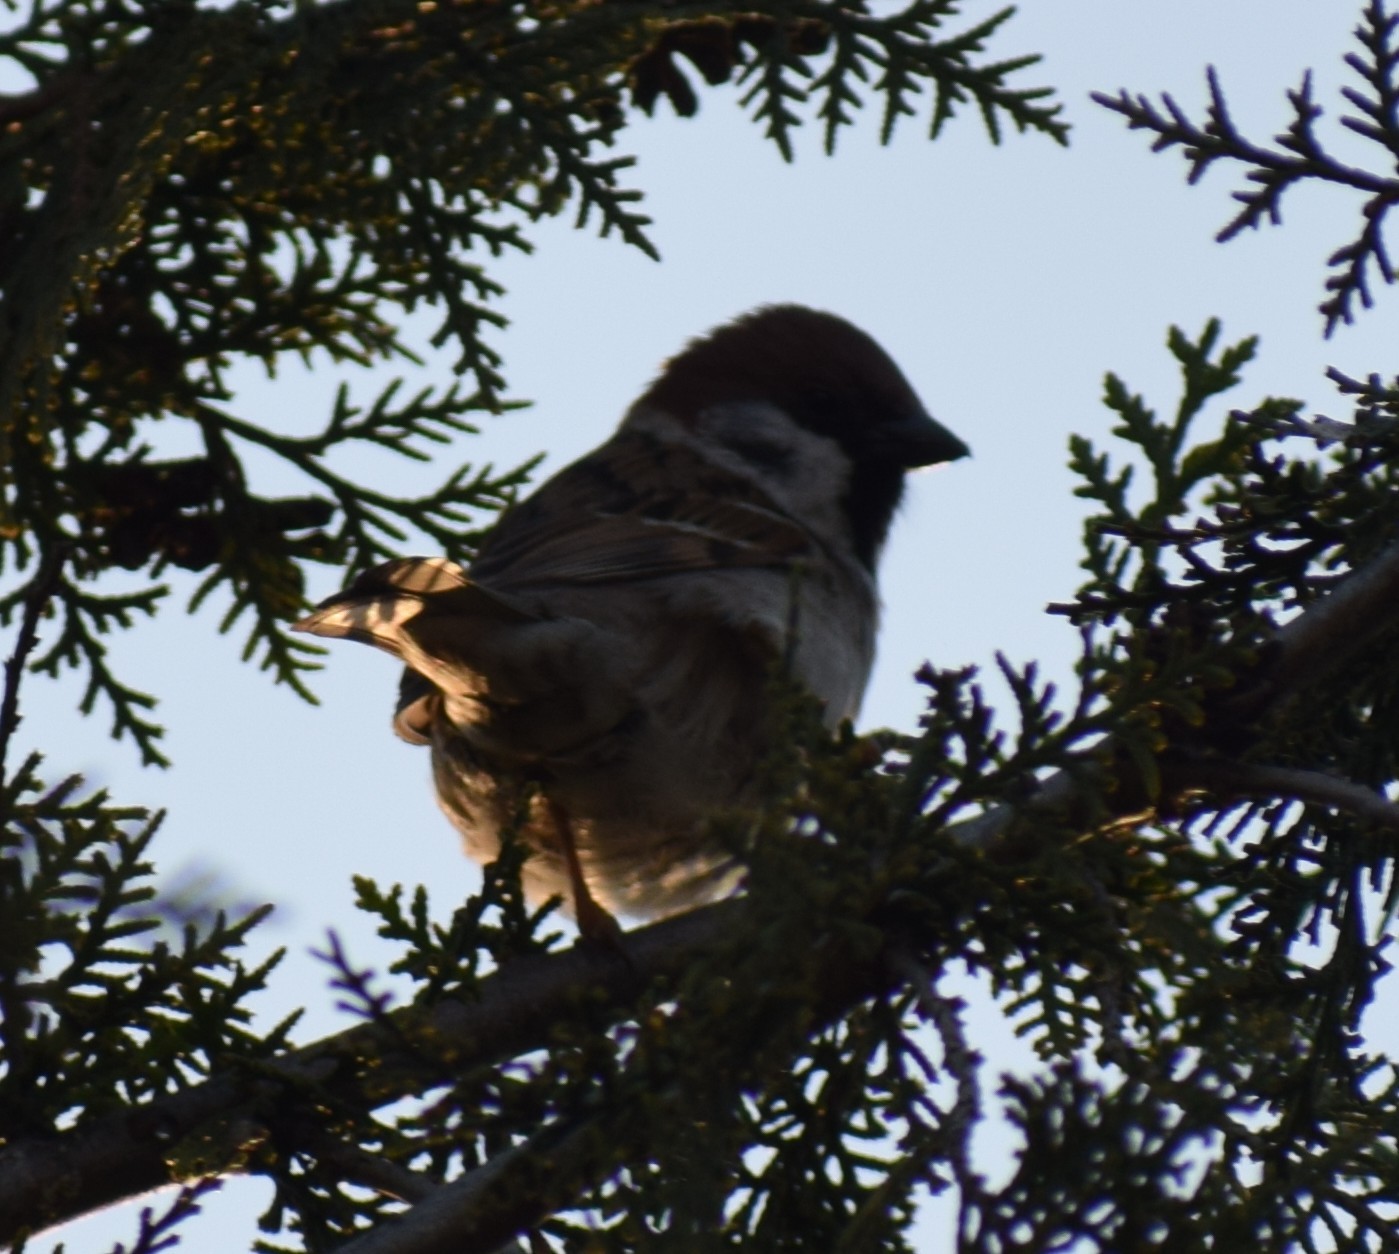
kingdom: Animalia
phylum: Chordata
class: Aves
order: Passeriformes
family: Passeridae
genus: Passer
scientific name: Passer montanus
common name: Eurasian tree sparrow
